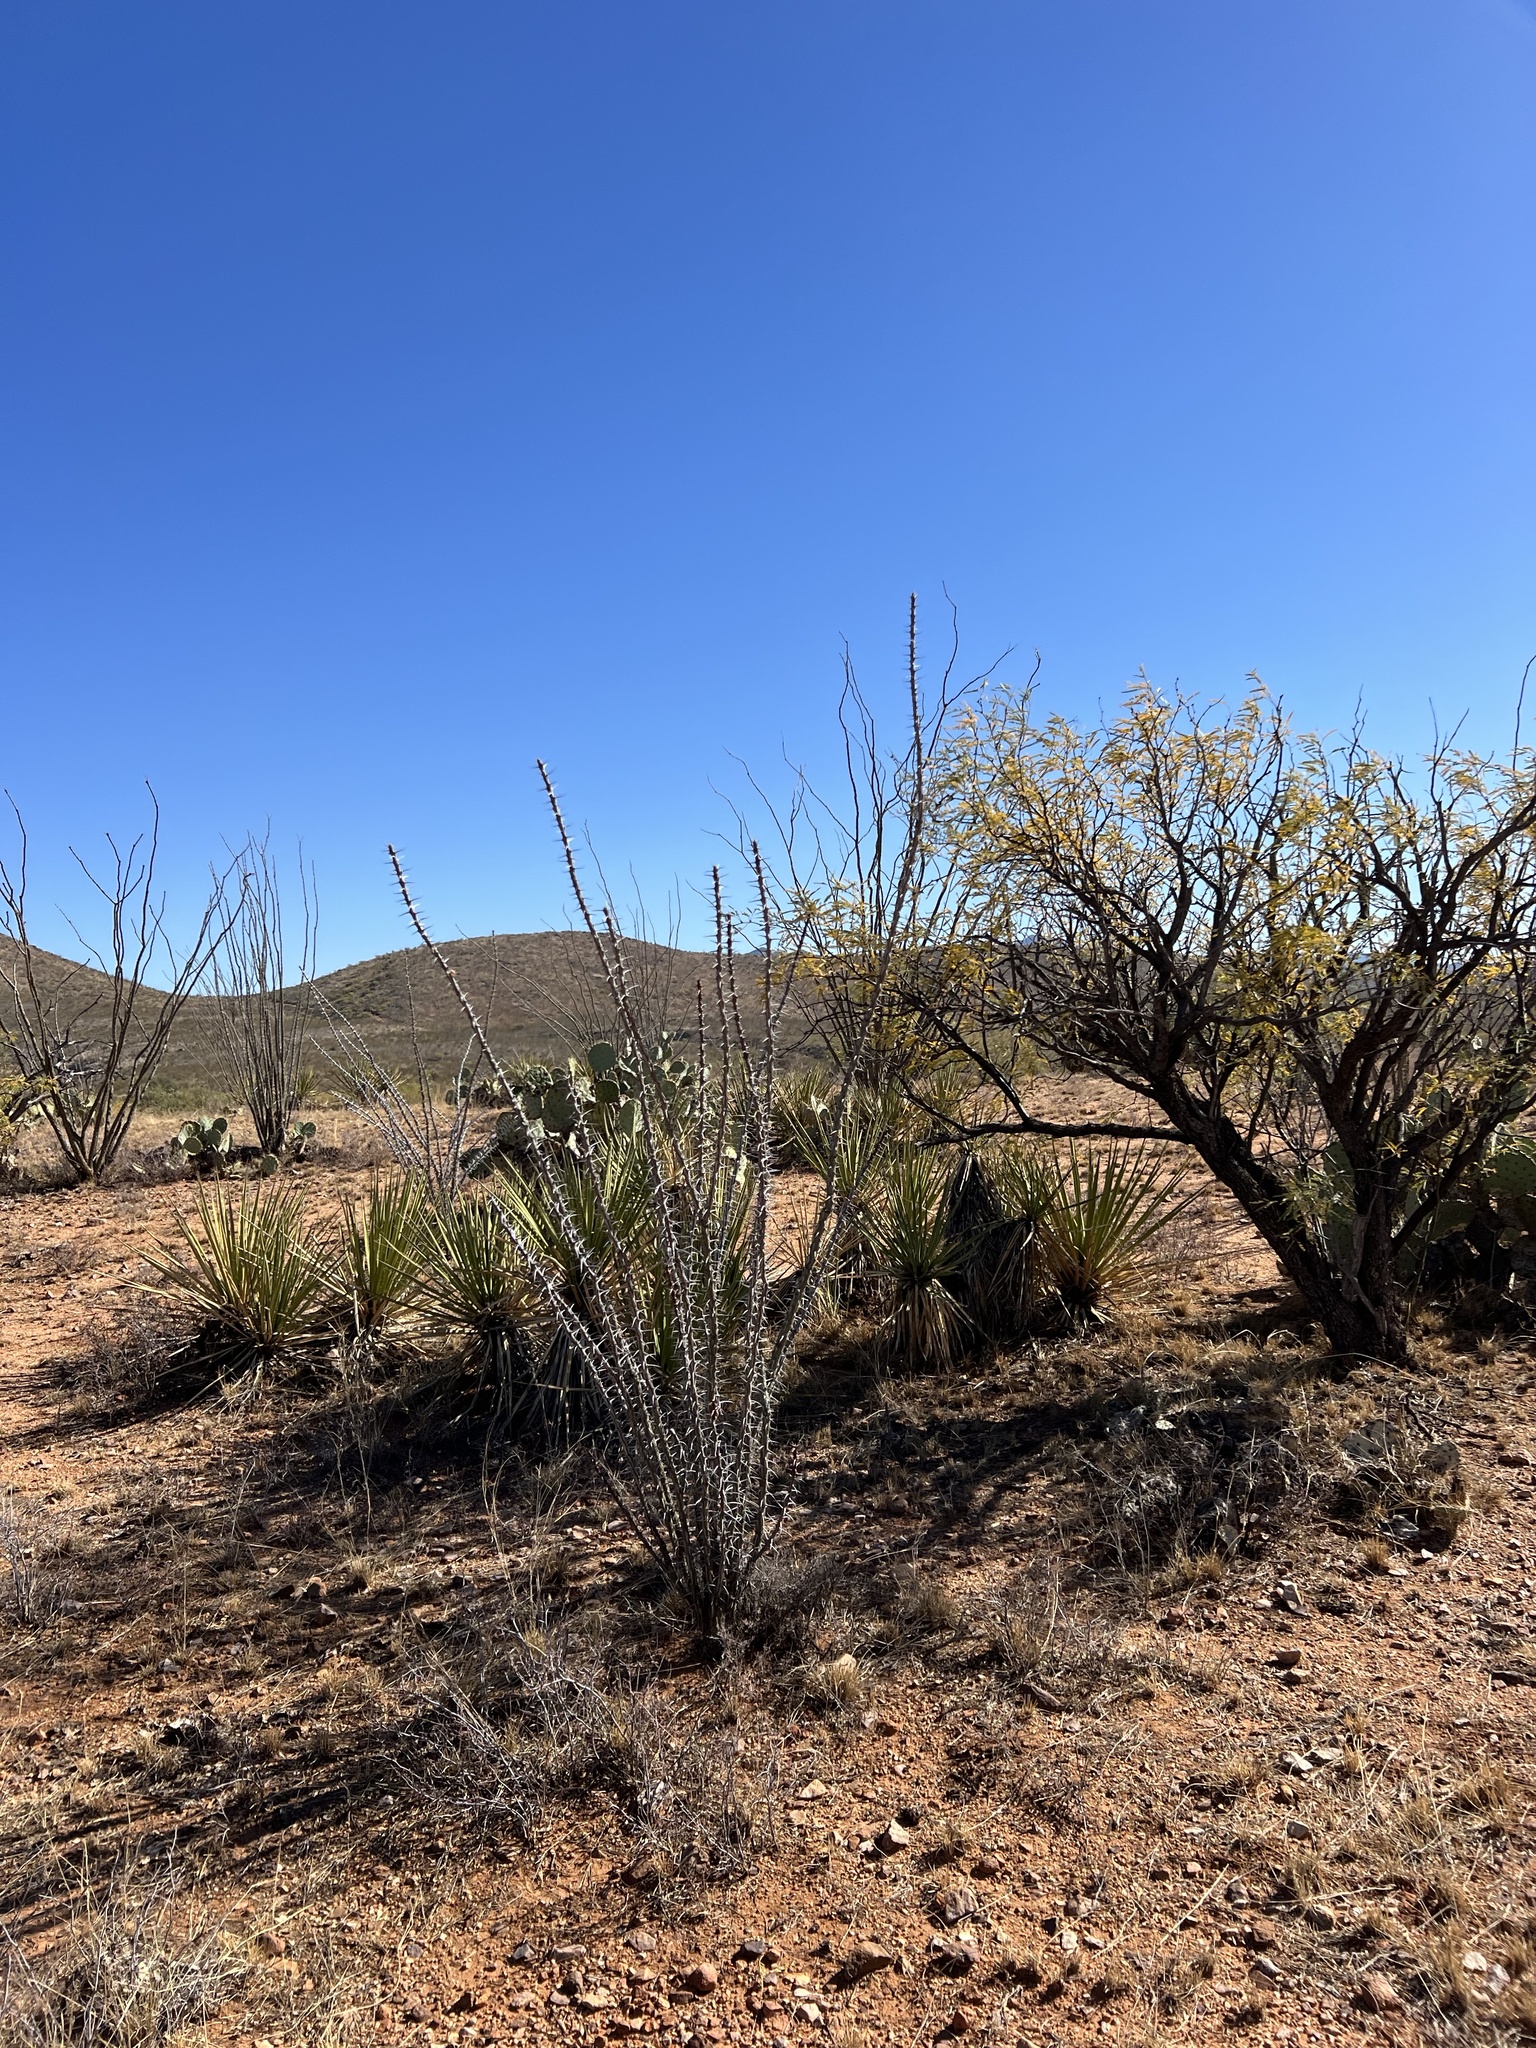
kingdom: Plantae
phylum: Tracheophyta
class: Magnoliopsida
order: Ericales
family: Fouquieriaceae
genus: Fouquieria
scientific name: Fouquieria splendens
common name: Vine-cactus
